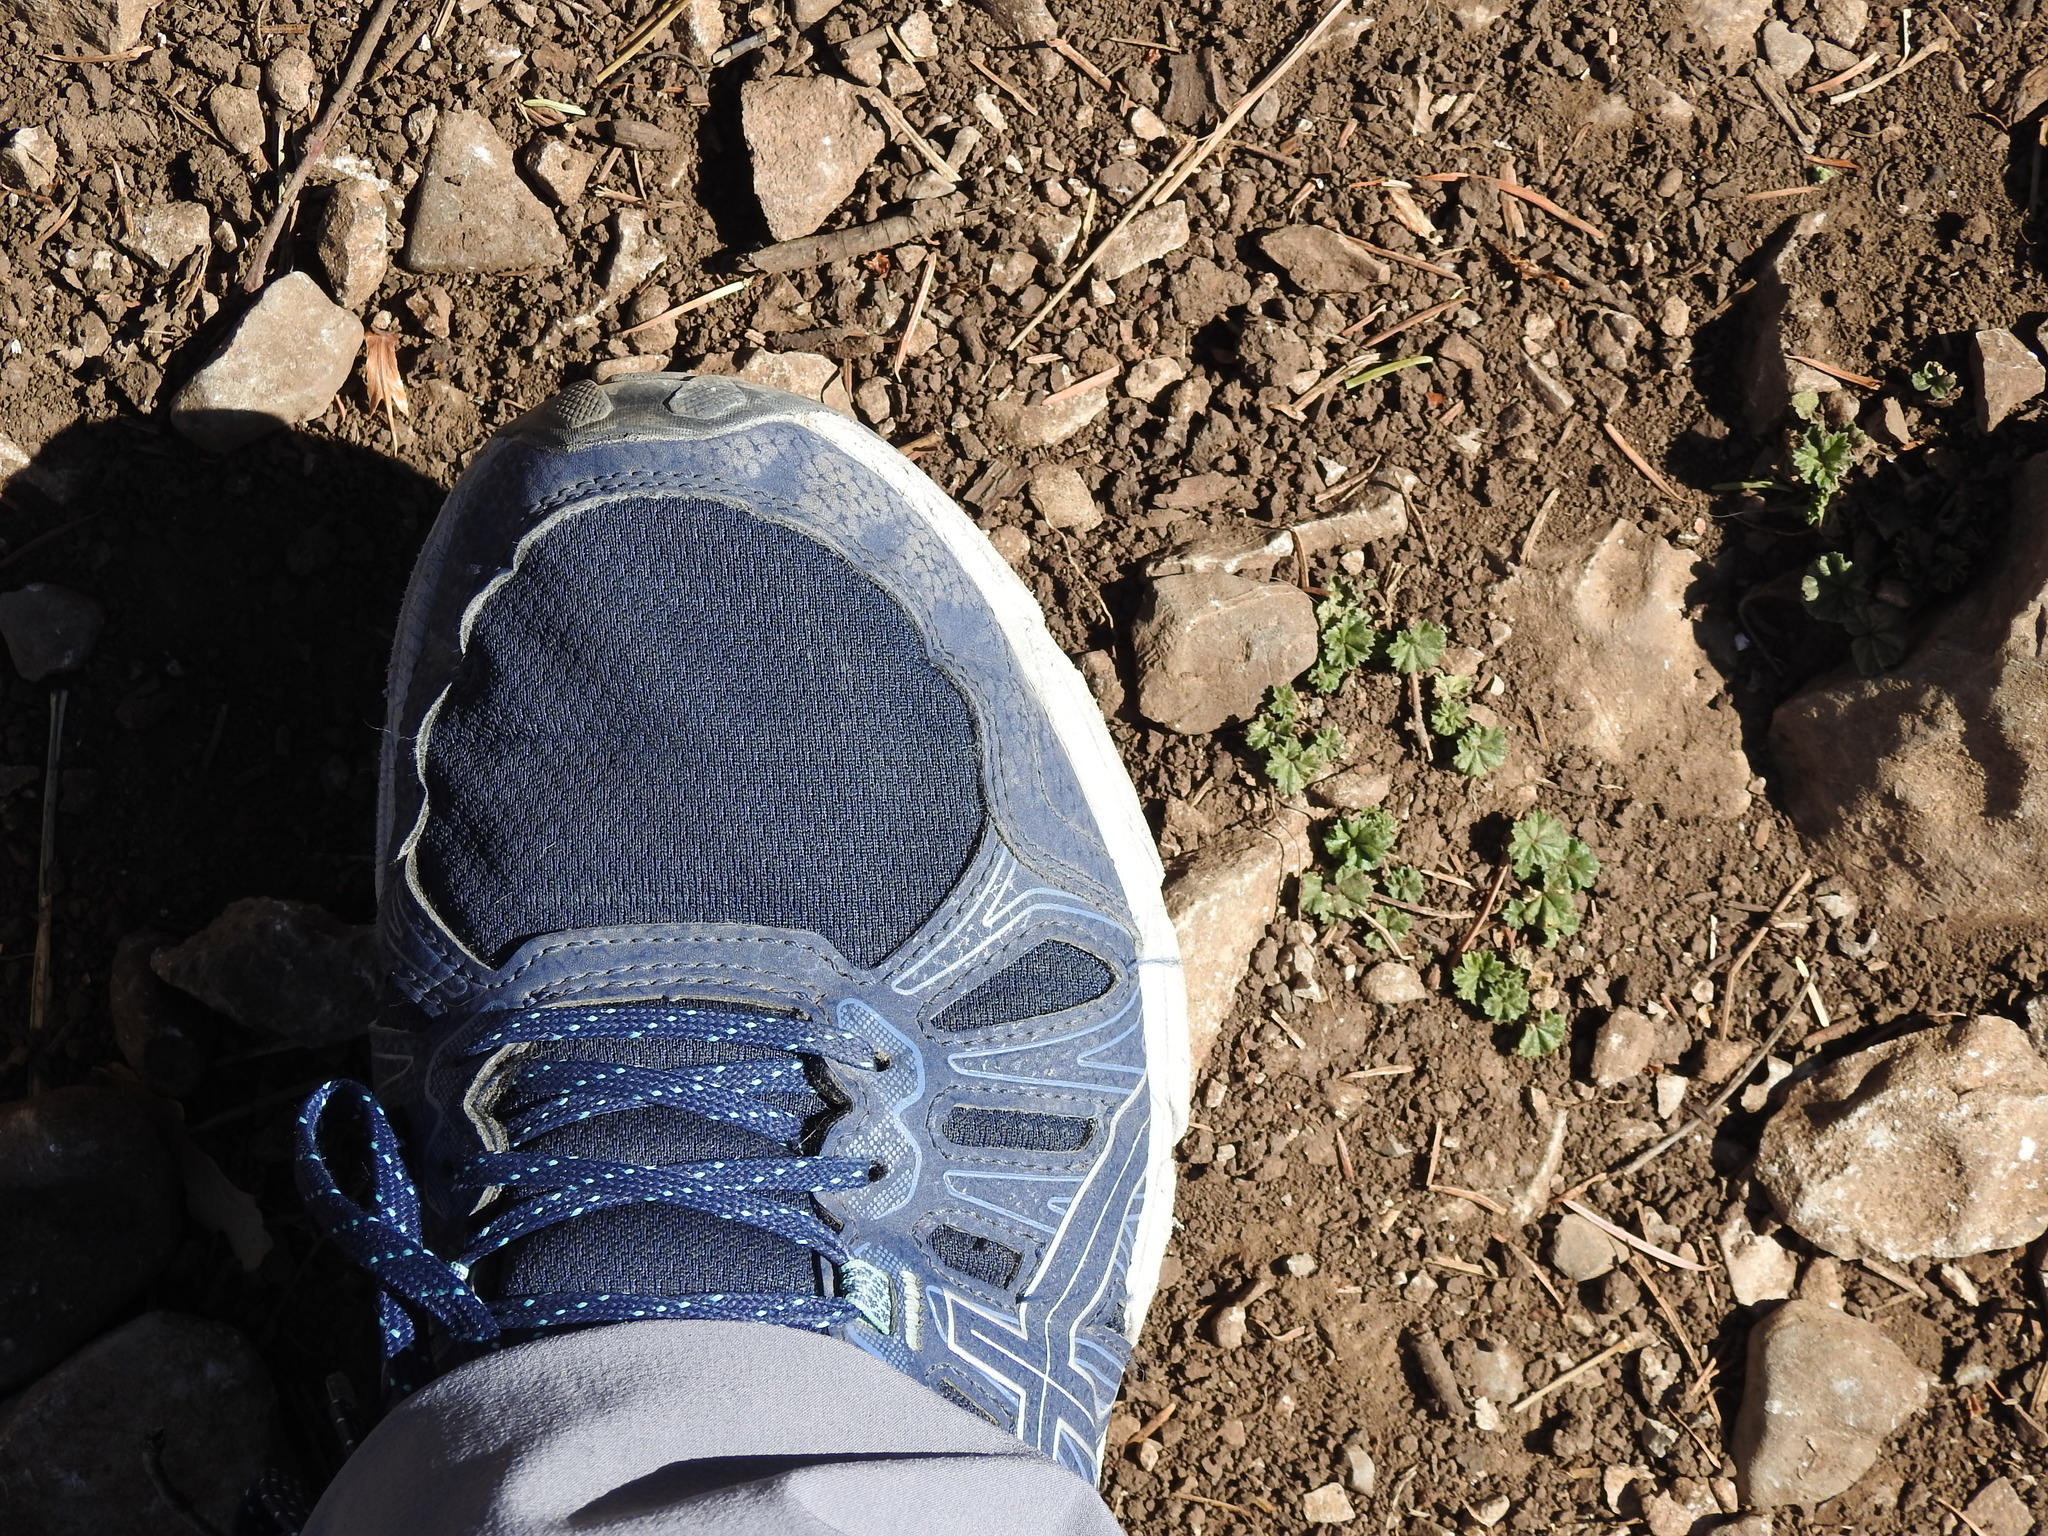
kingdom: Plantae
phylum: Tracheophyta
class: Magnoliopsida
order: Malvales
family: Malvaceae
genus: Malva
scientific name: Malva neglecta
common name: Common mallow
